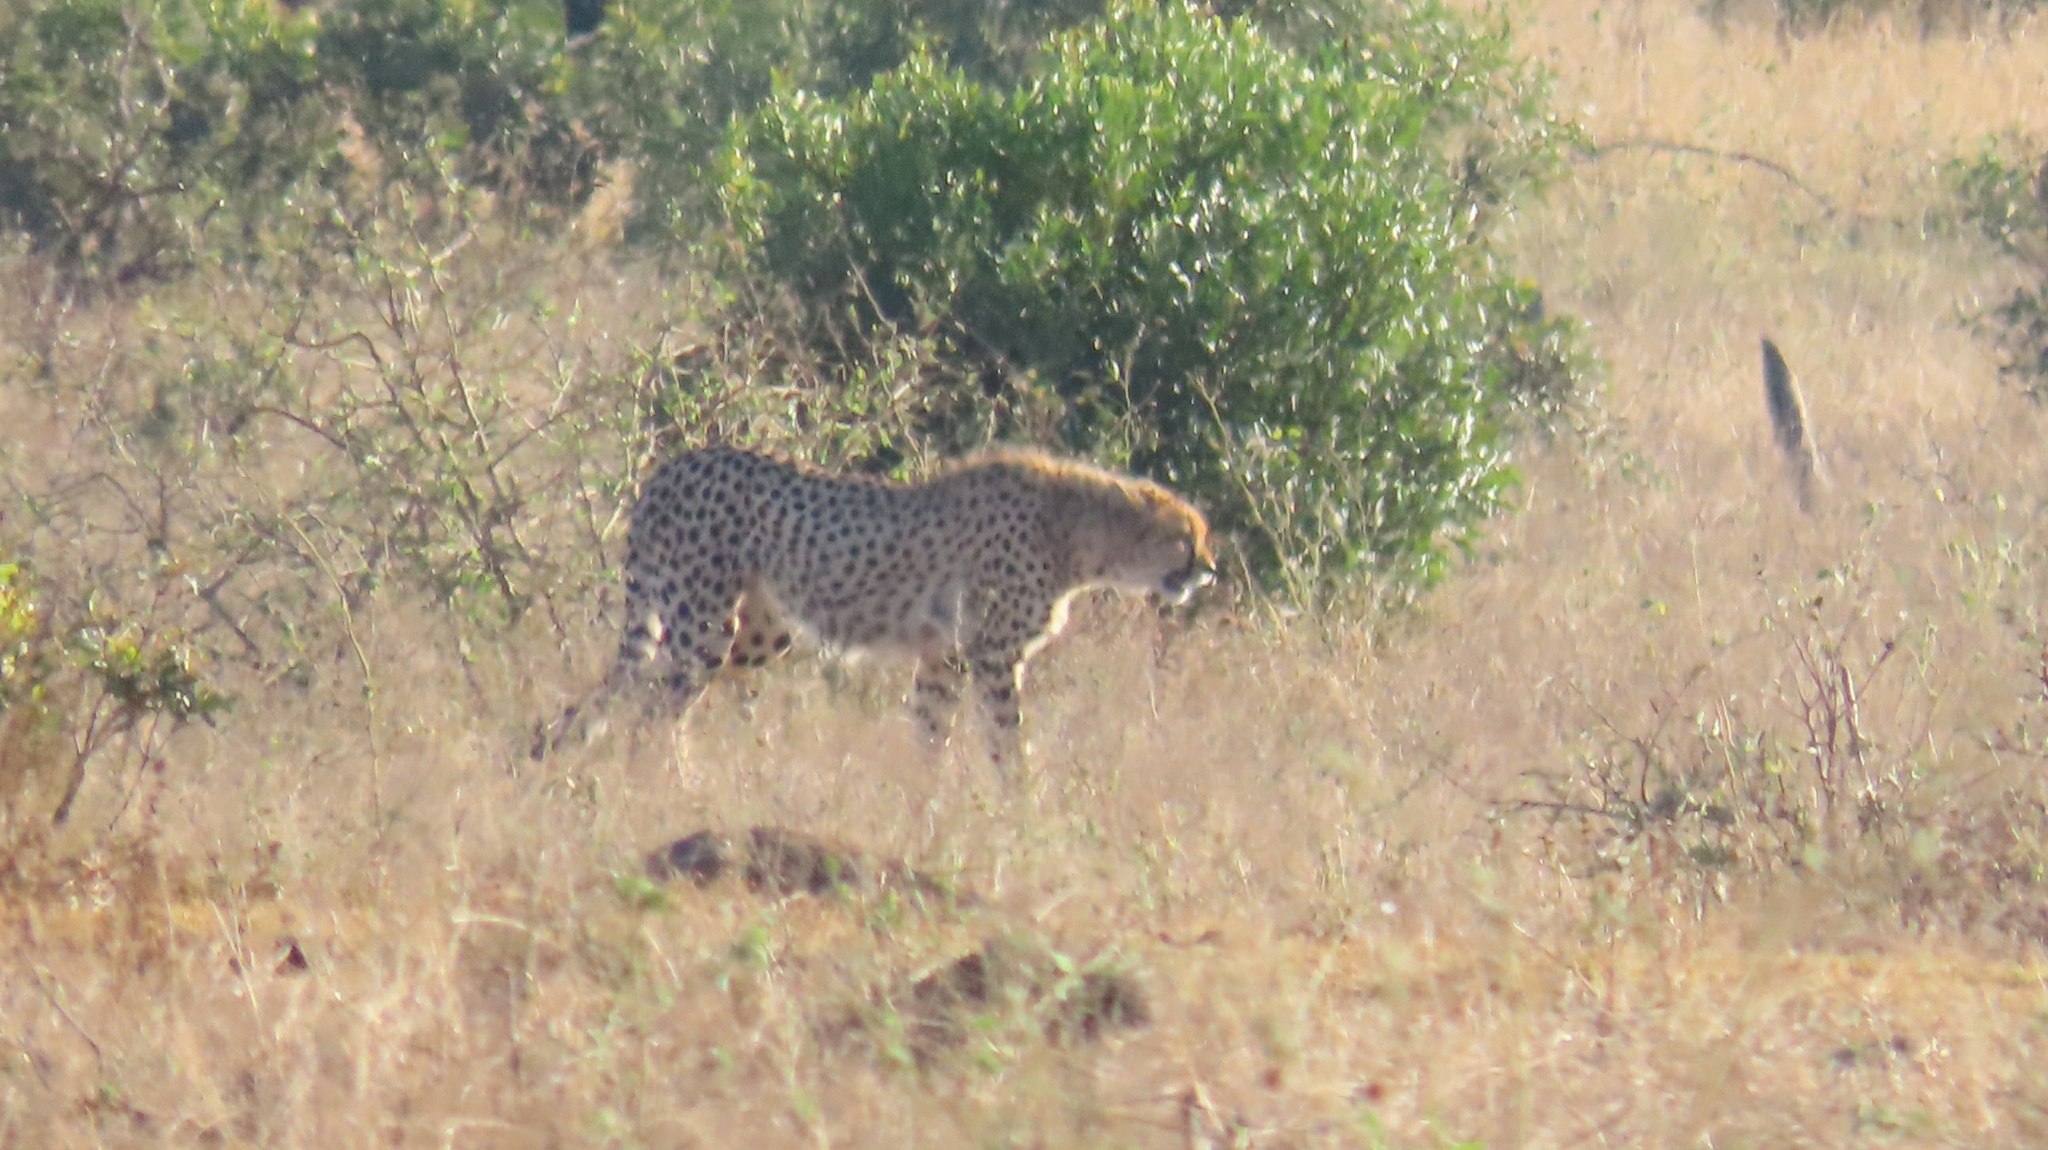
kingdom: Animalia
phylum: Chordata
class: Mammalia
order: Carnivora
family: Felidae
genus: Acinonyx
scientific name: Acinonyx jubatus
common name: Cheetah
